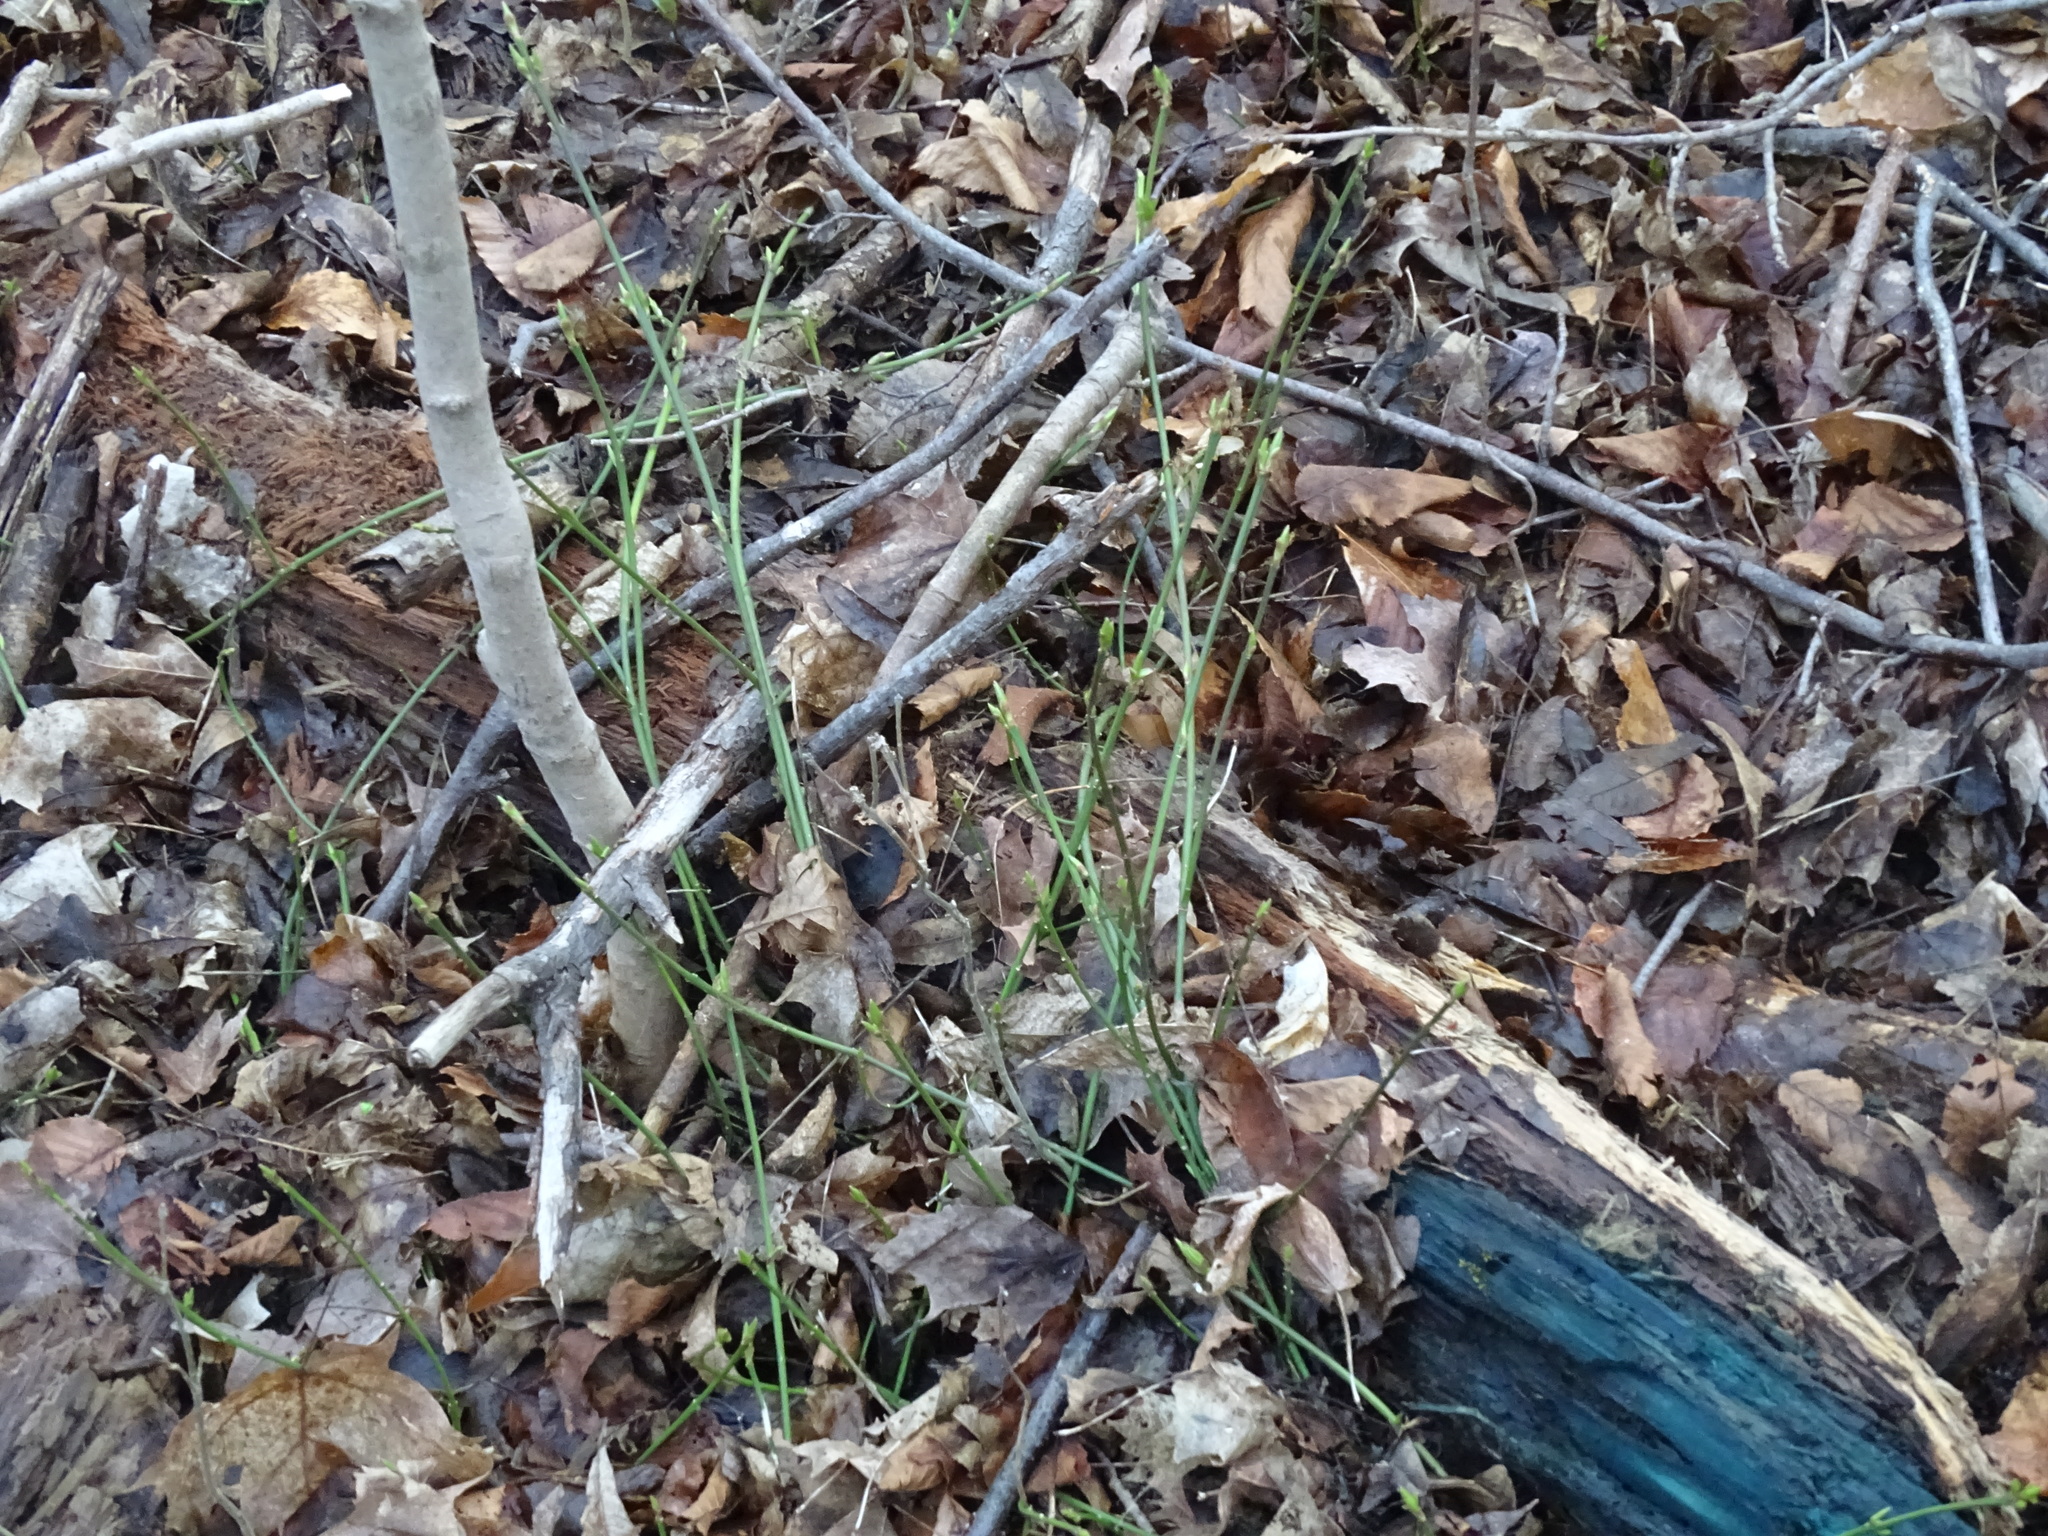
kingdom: Plantae
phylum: Tracheophyta
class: Magnoliopsida
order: Celastrales
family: Celastraceae
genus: Euonymus
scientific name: Euonymus obovatus
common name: Running strawberry-bush
